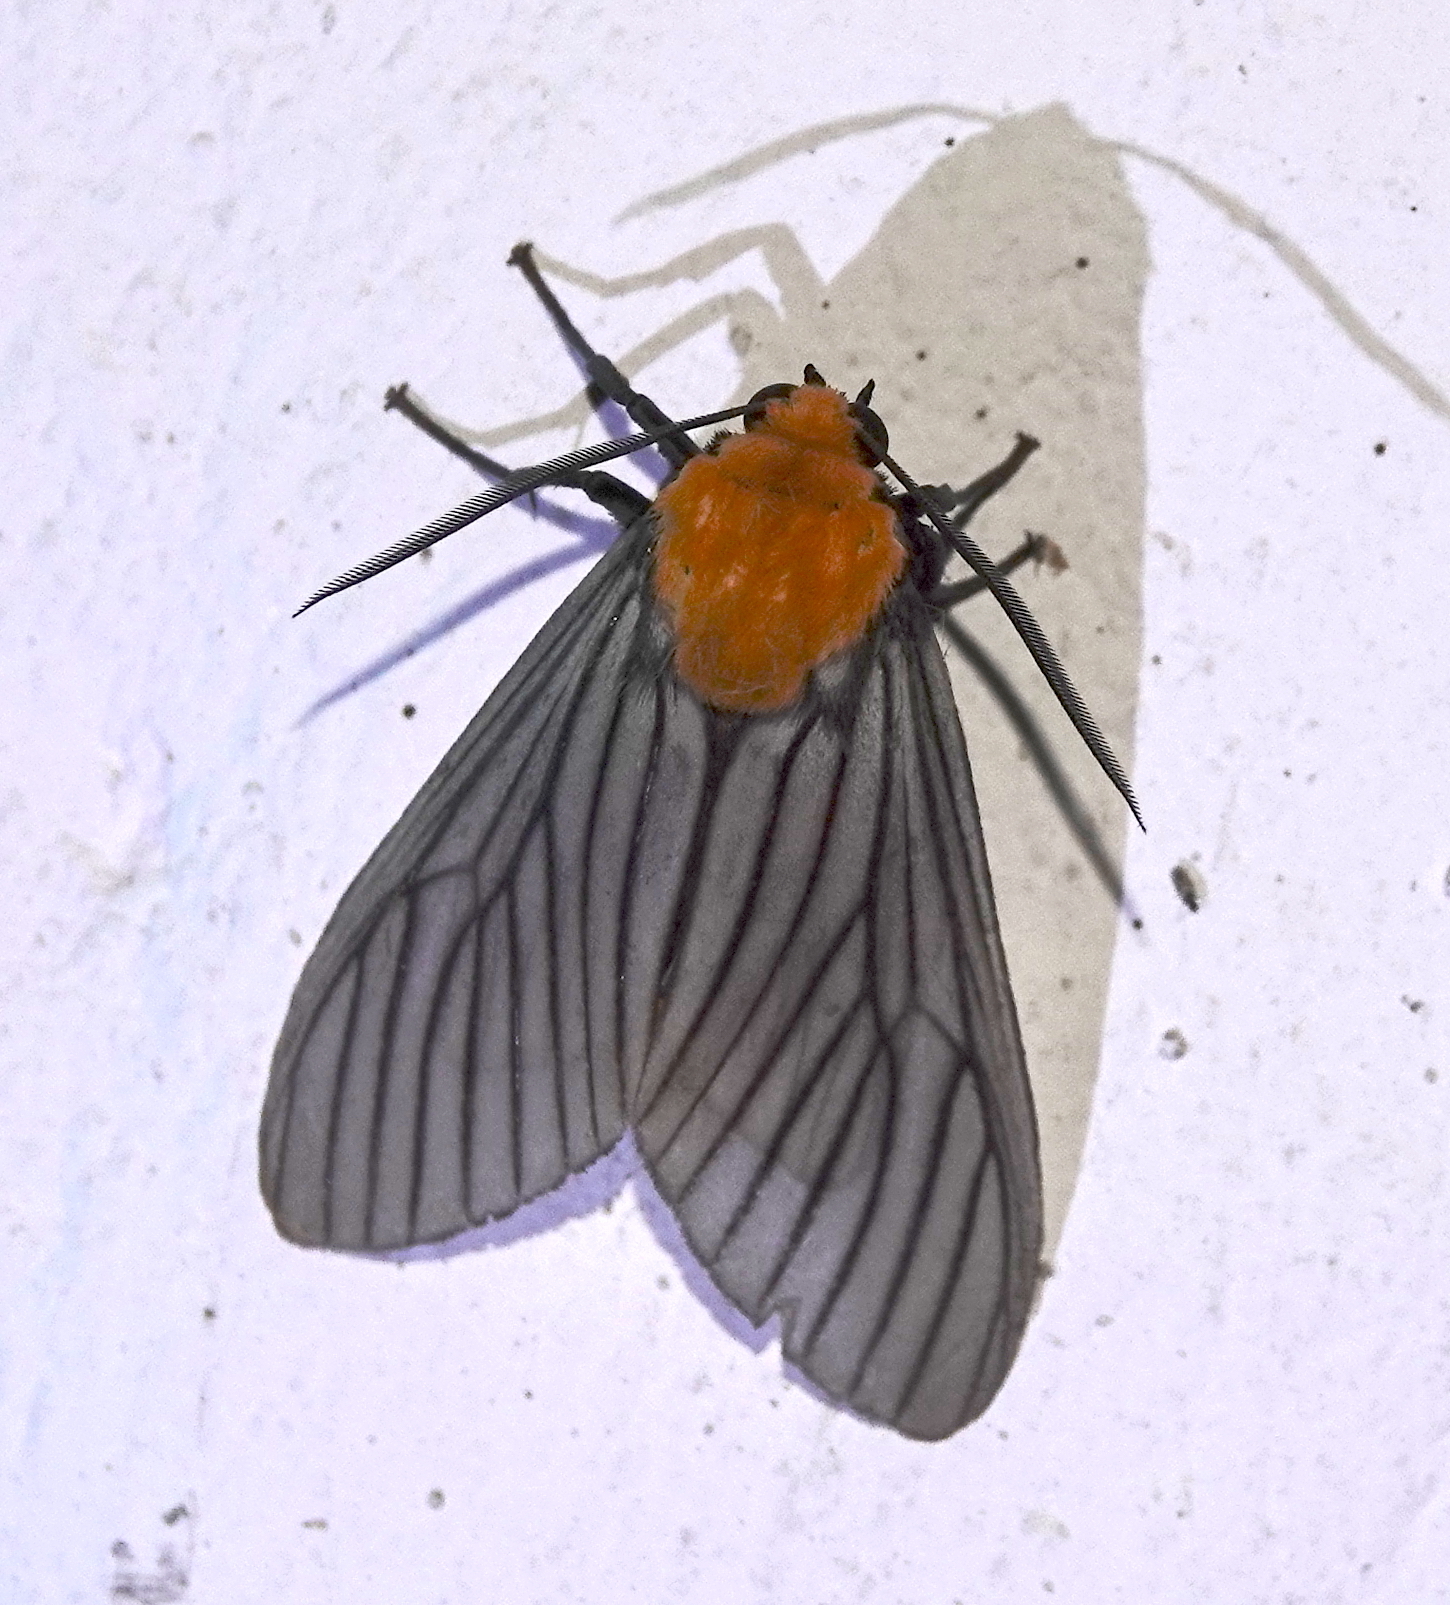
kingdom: Animalia
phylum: Arthropoda
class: Insecta
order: Lepidoptera
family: Erebidae
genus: Pseudischnocampa
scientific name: Pseudischnocampa humosa
